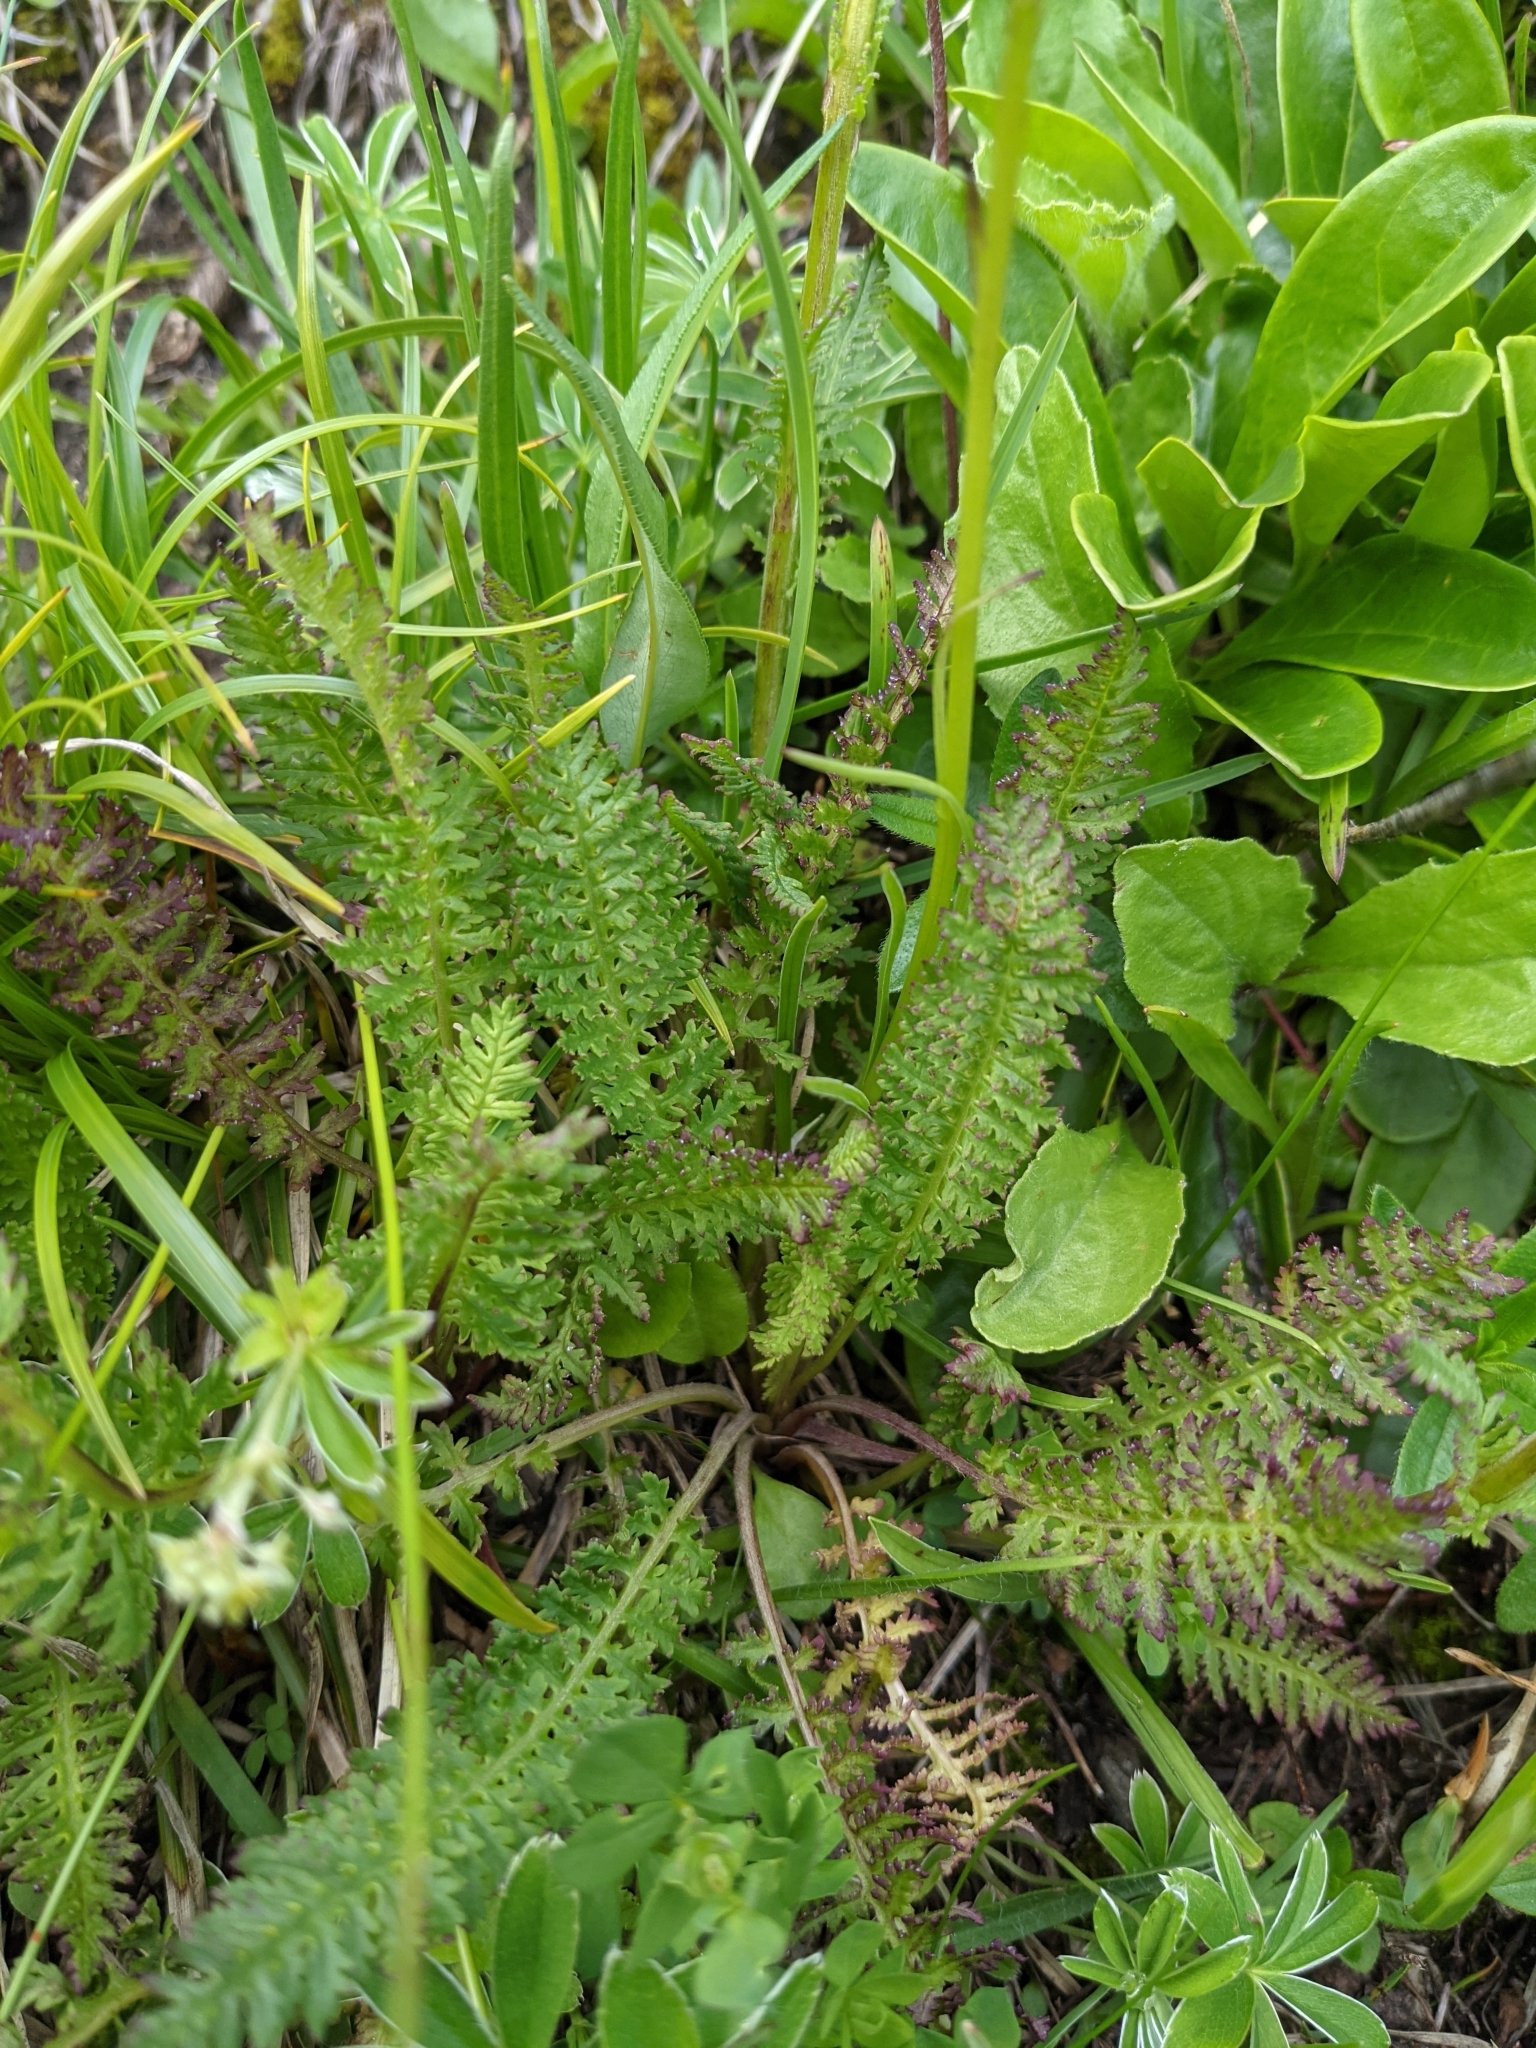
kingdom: Plantae
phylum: Tracheophyta
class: Magnoliopsida
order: Lamiales
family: Orobanchaceae
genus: Pedicularis
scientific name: Pedicularis ascendens
